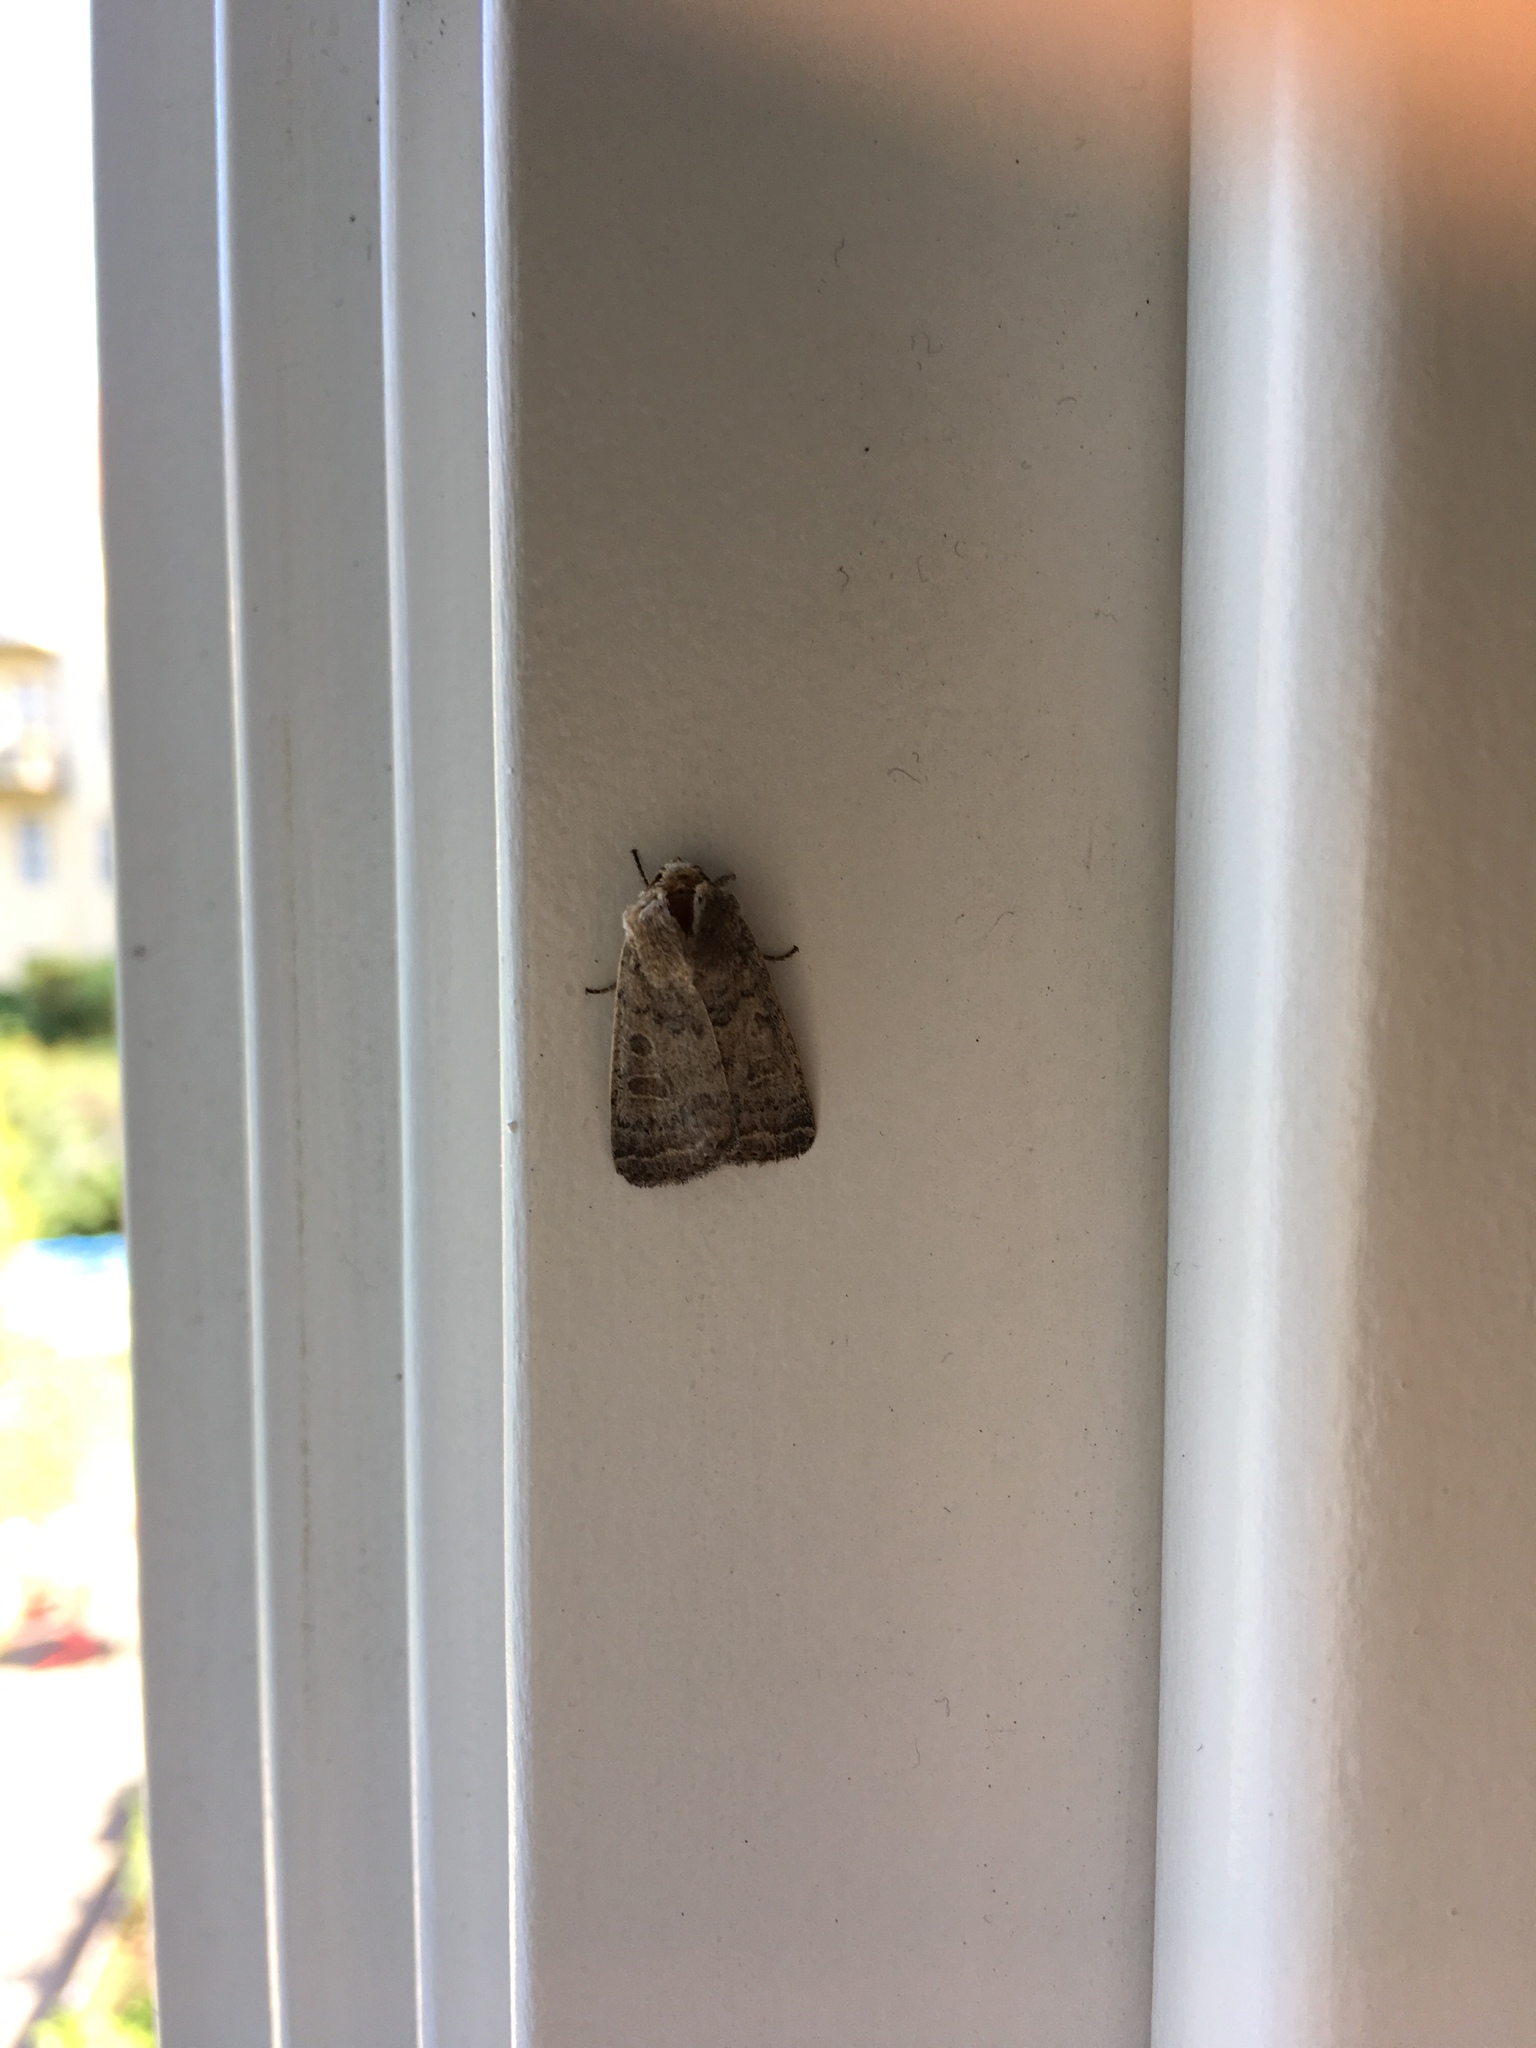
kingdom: Animalia
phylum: Arthropoda
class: Insecta
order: Lepidoptera
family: Noctuidae
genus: Hoplodrina
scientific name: Hoplodrina blanda
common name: Rustic
